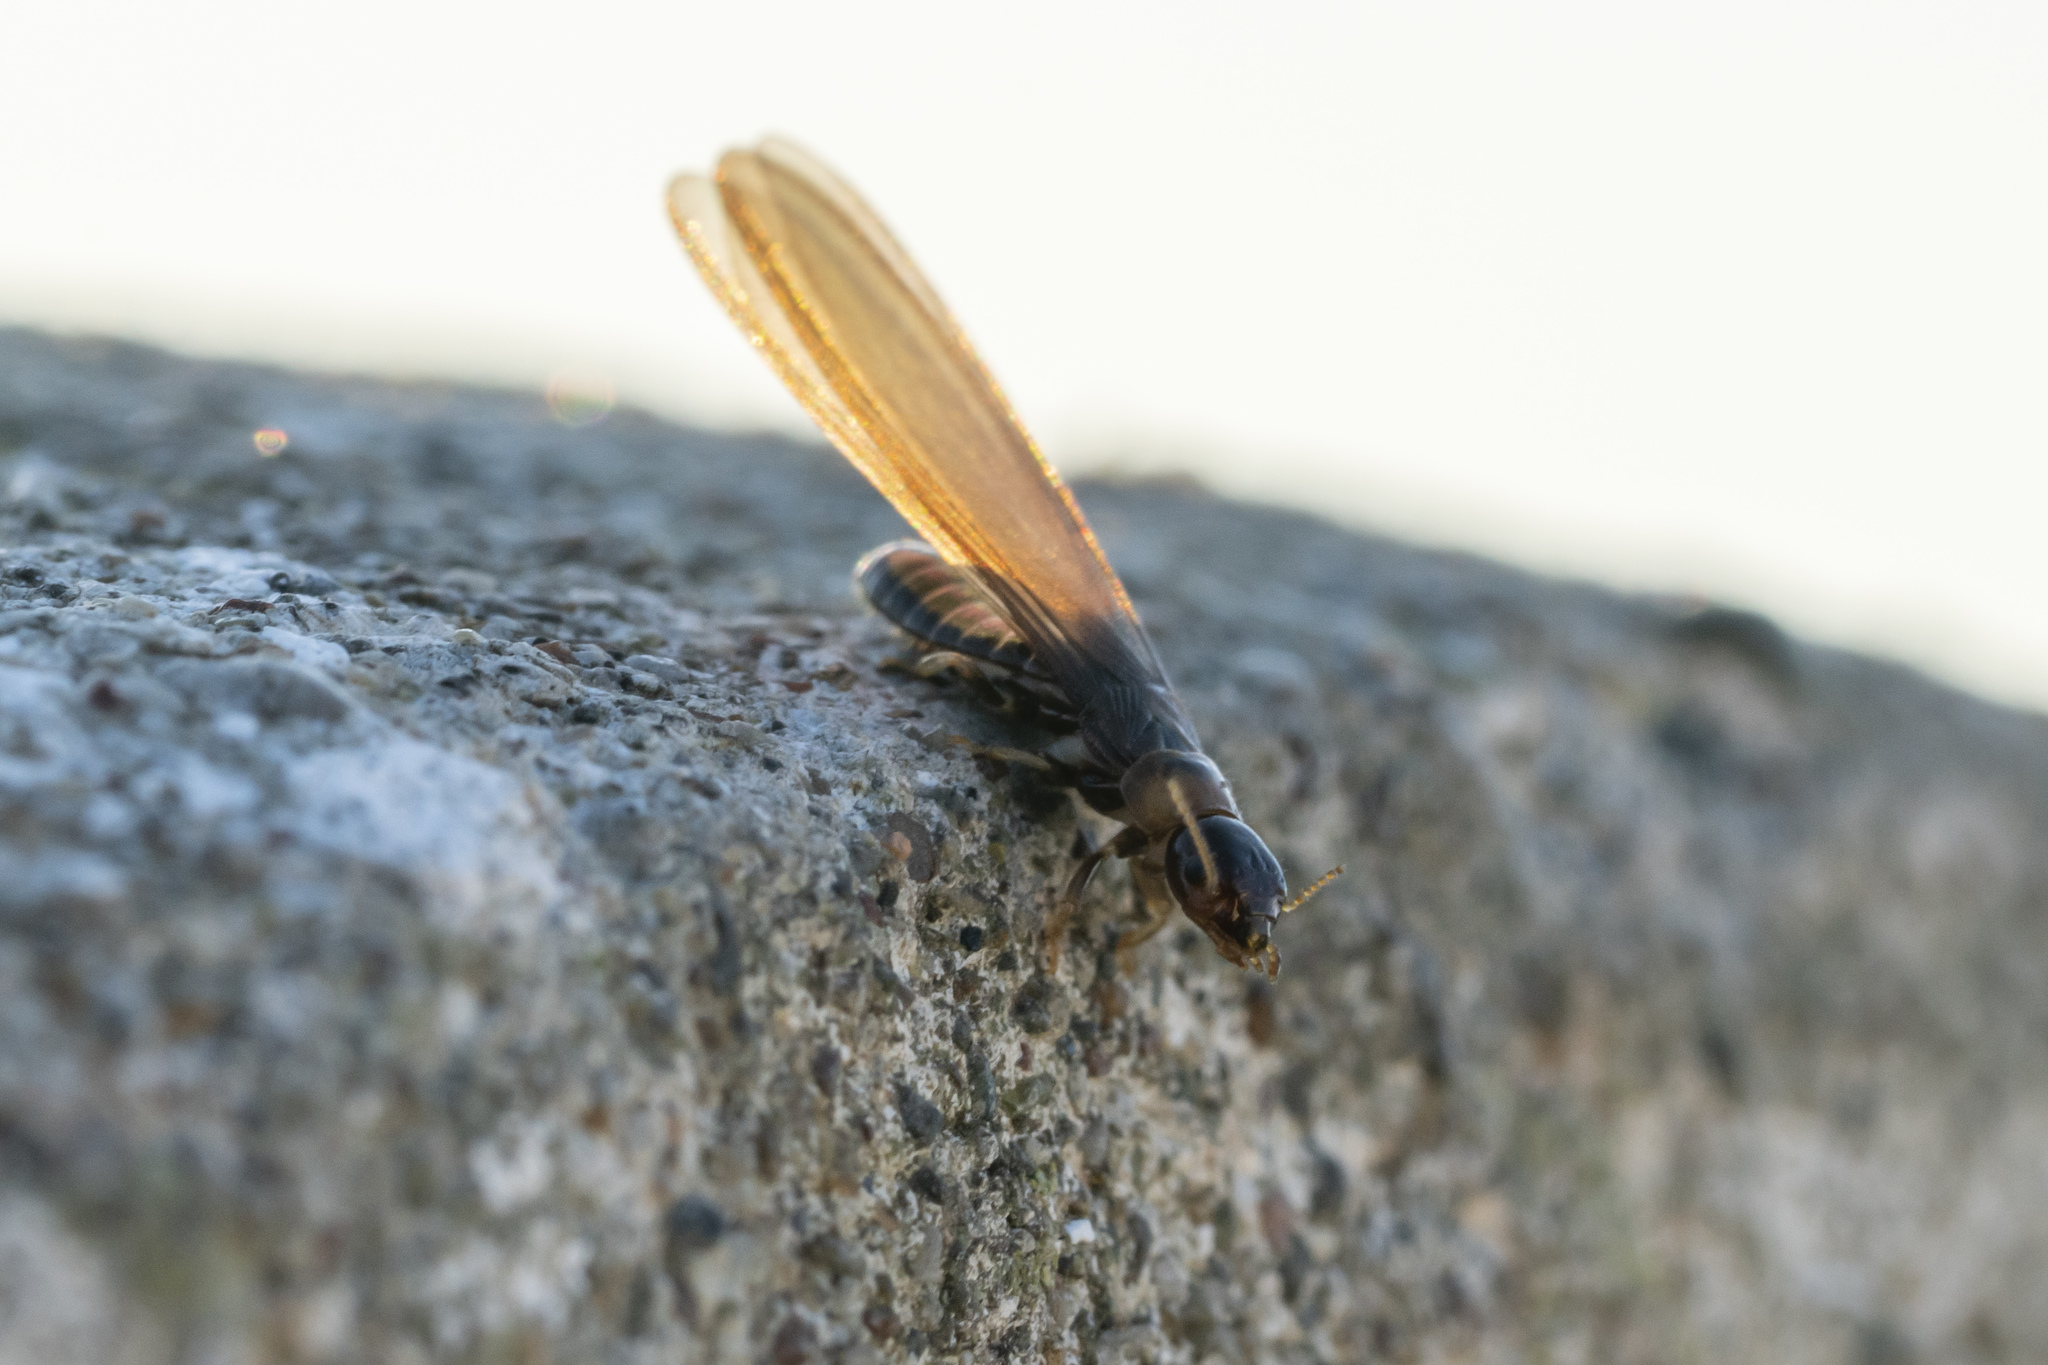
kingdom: Animalia
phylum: Arthropoda
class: Insecta
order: Blattodea
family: Kalotermitidae
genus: Kalotermes
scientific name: Kalotermes flavicollis
